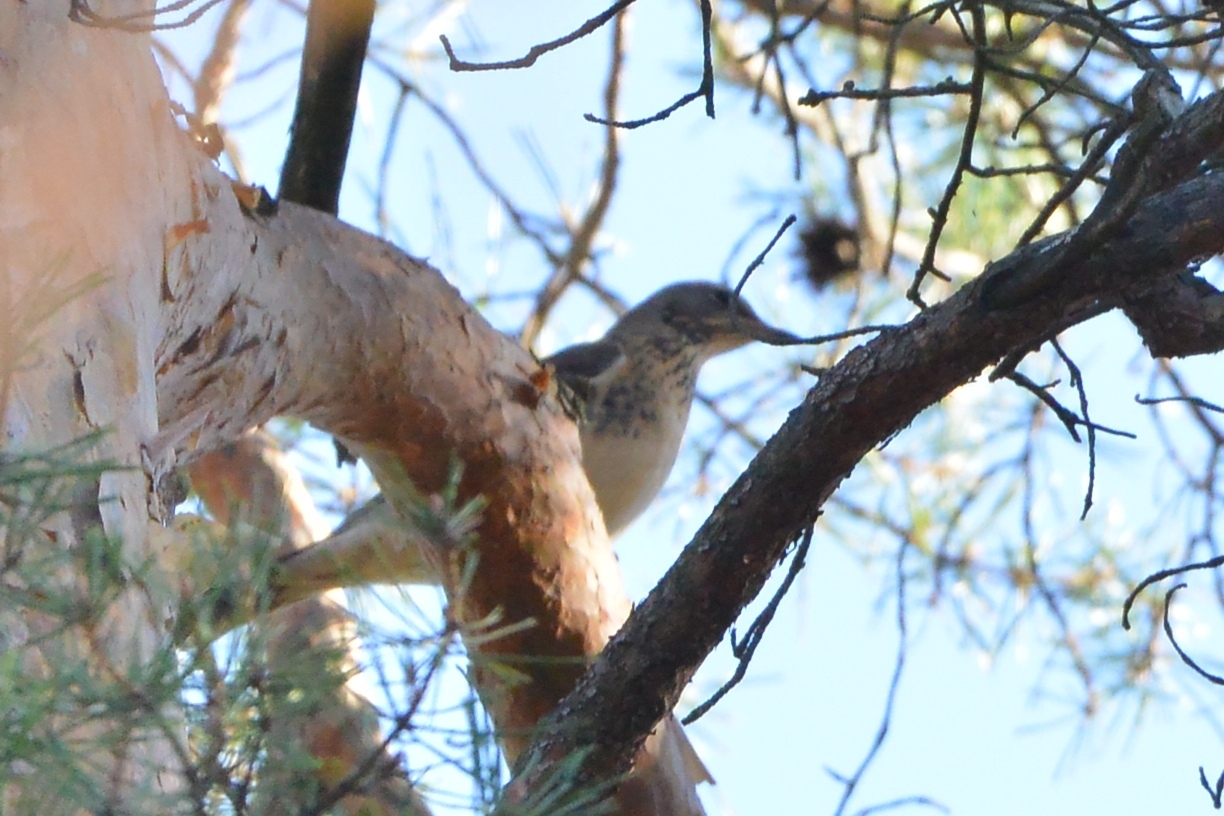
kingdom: Animalia
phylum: Chordata
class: Aves
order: Passeriformes
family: Turdidae
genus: Turdus
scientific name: Turdus pilaris
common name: Fieldfare
